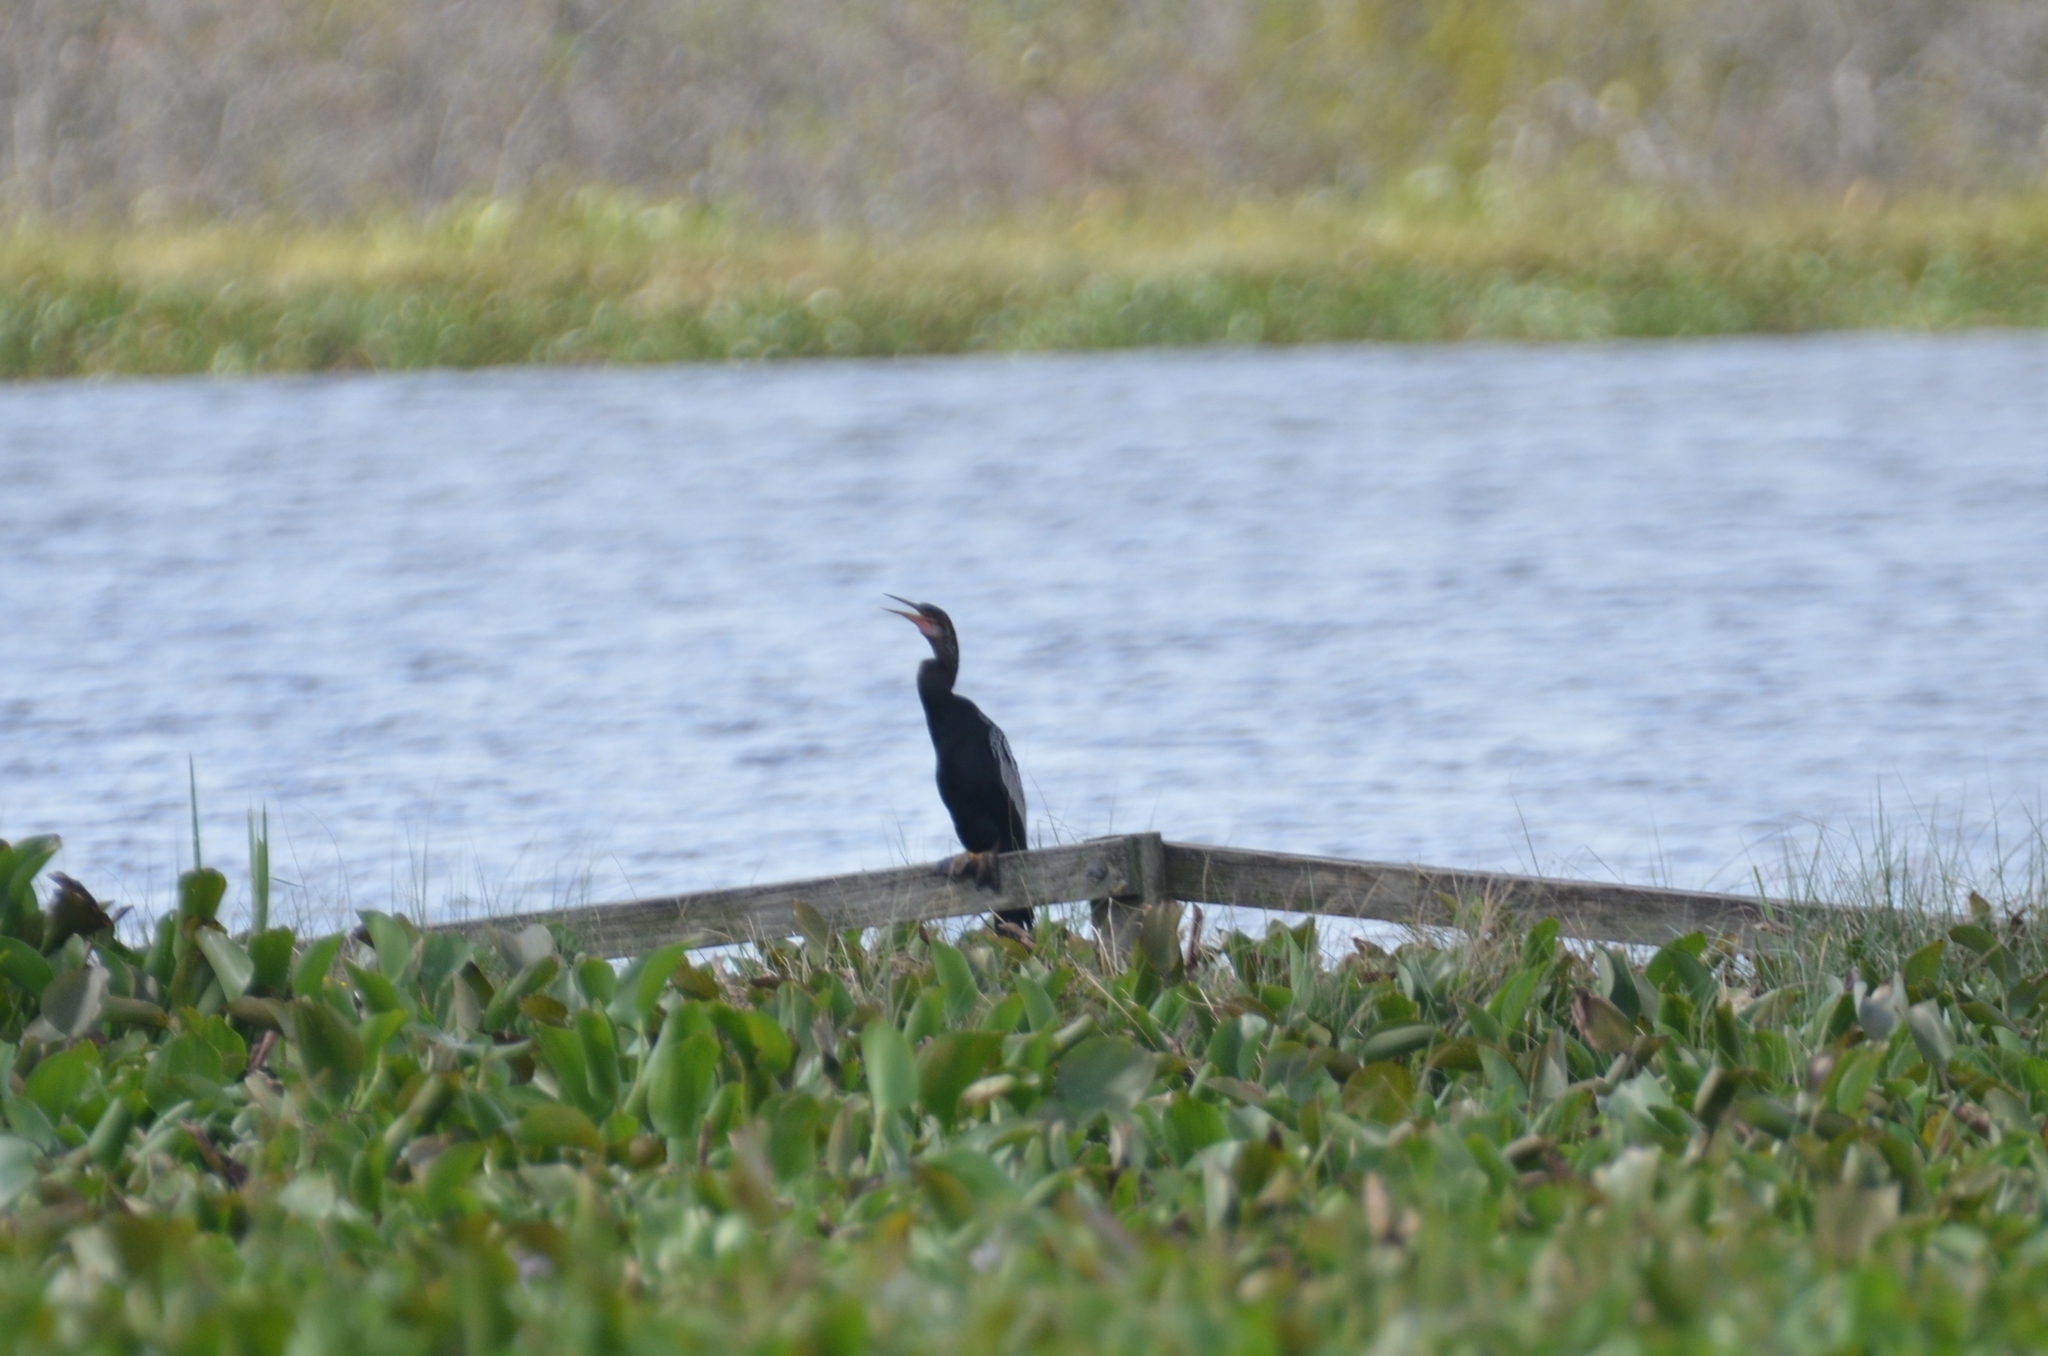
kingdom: Animalia
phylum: Chordata
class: Aves
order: Suliformes
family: Anhingidae
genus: Anhinga
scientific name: Anhinga anhinga
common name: Anhinga
